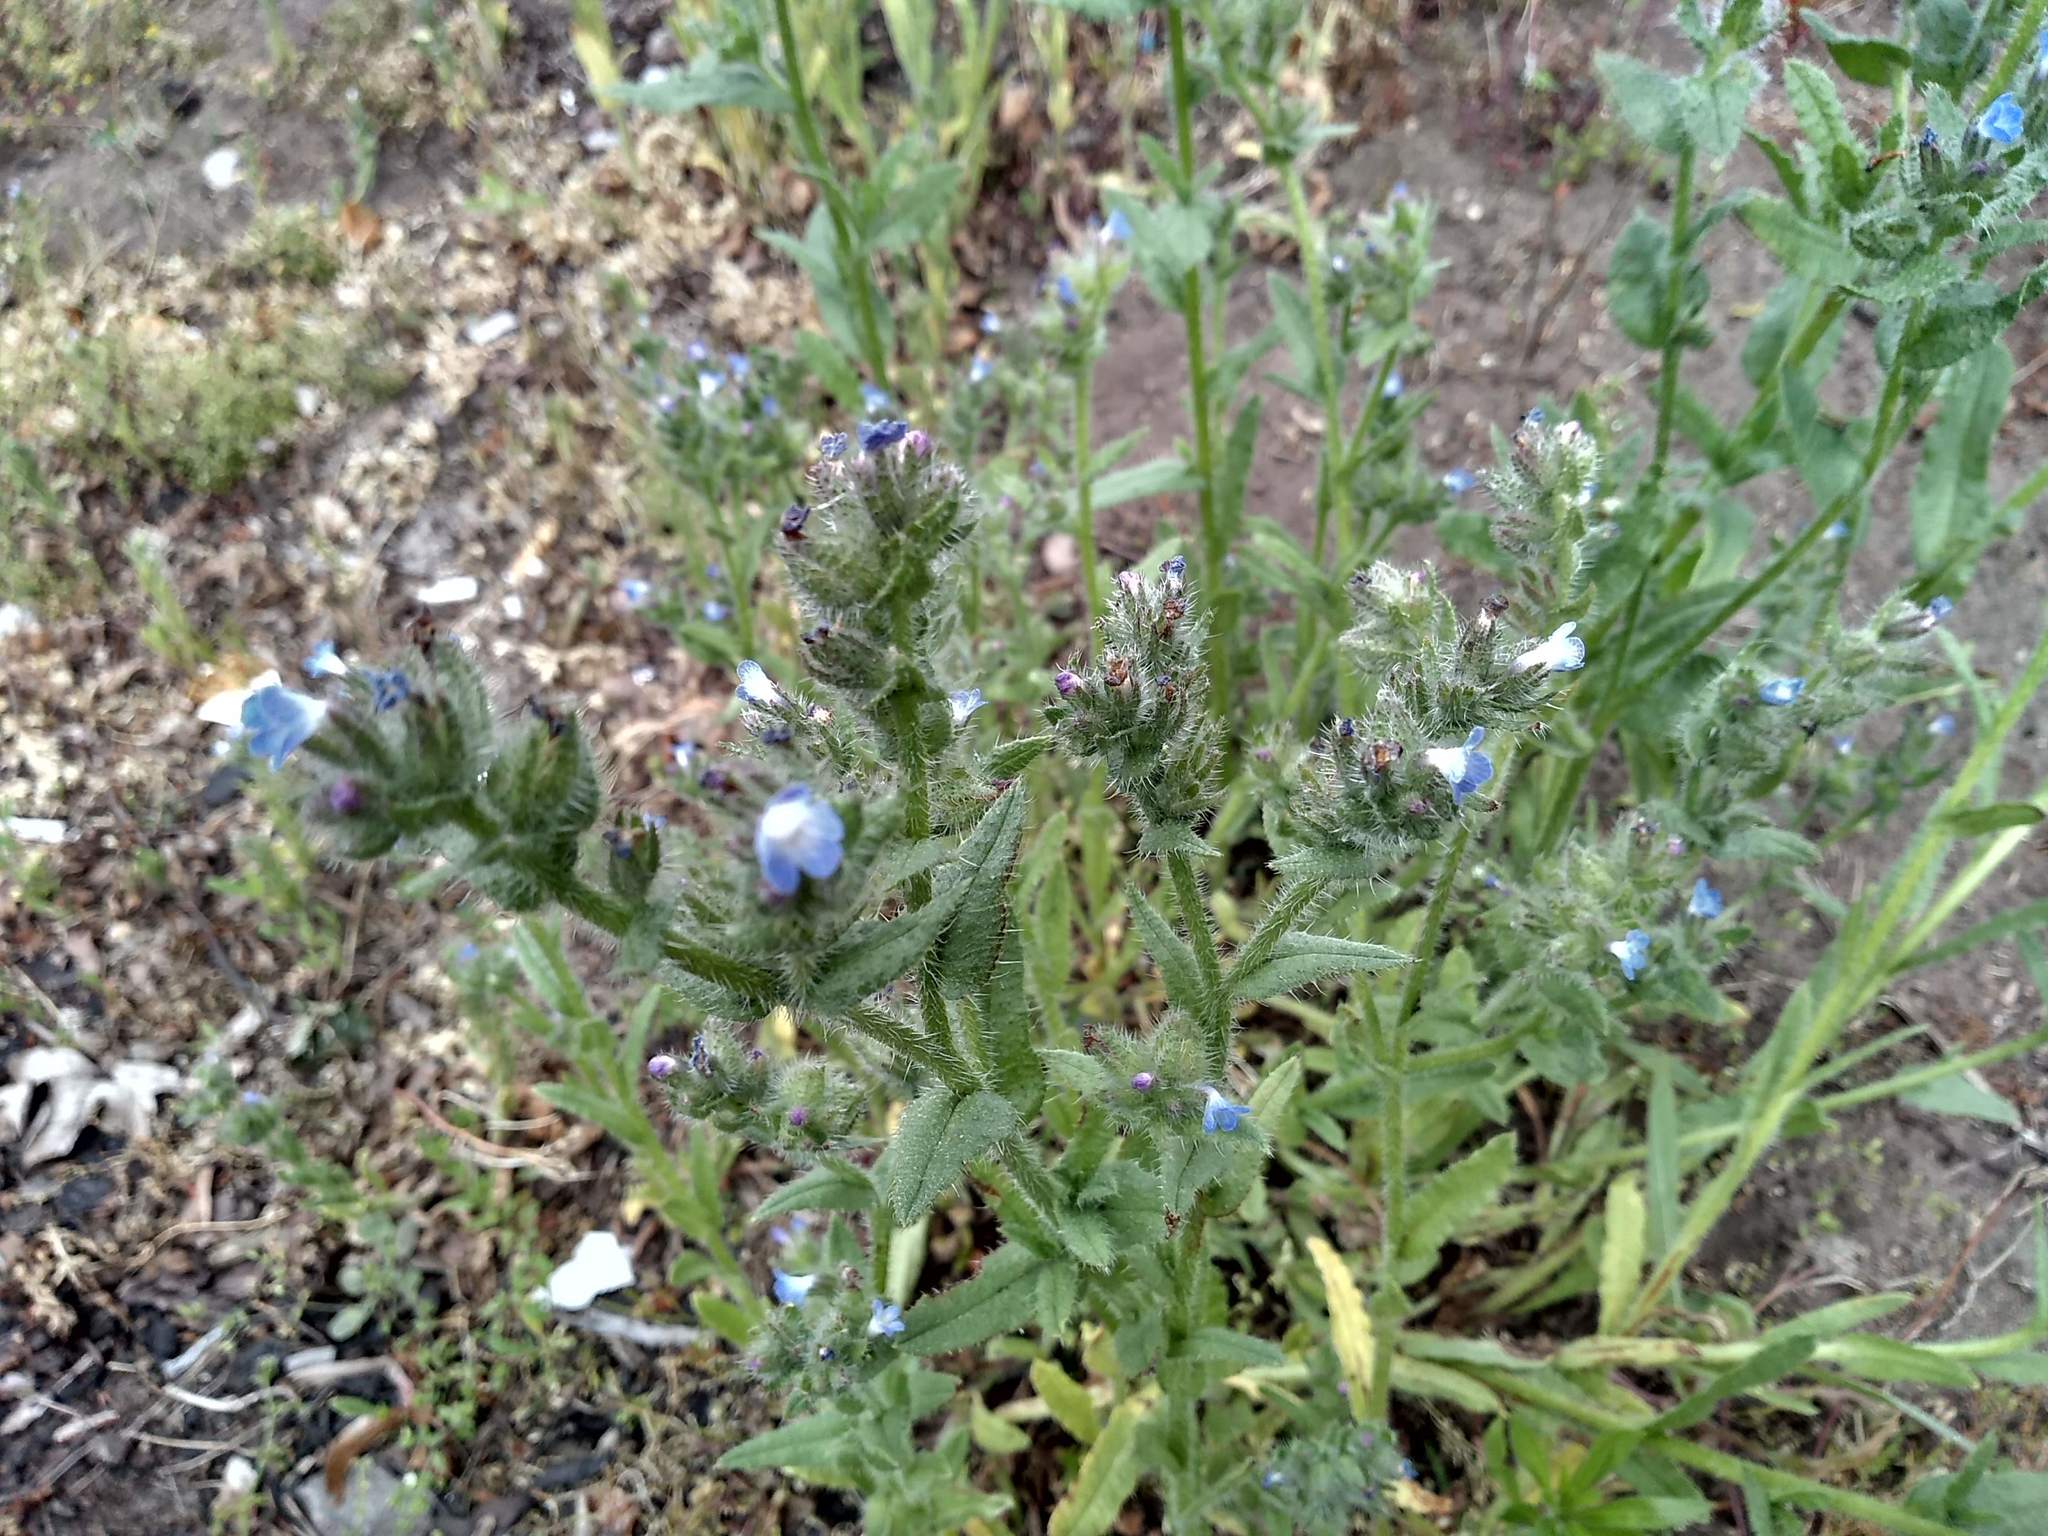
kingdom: Plantae
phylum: Tracheophyta
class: Magnoliopsida
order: Boraginales
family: Boraginaceae
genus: Lycopsis
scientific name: Lycopsis arvensis
